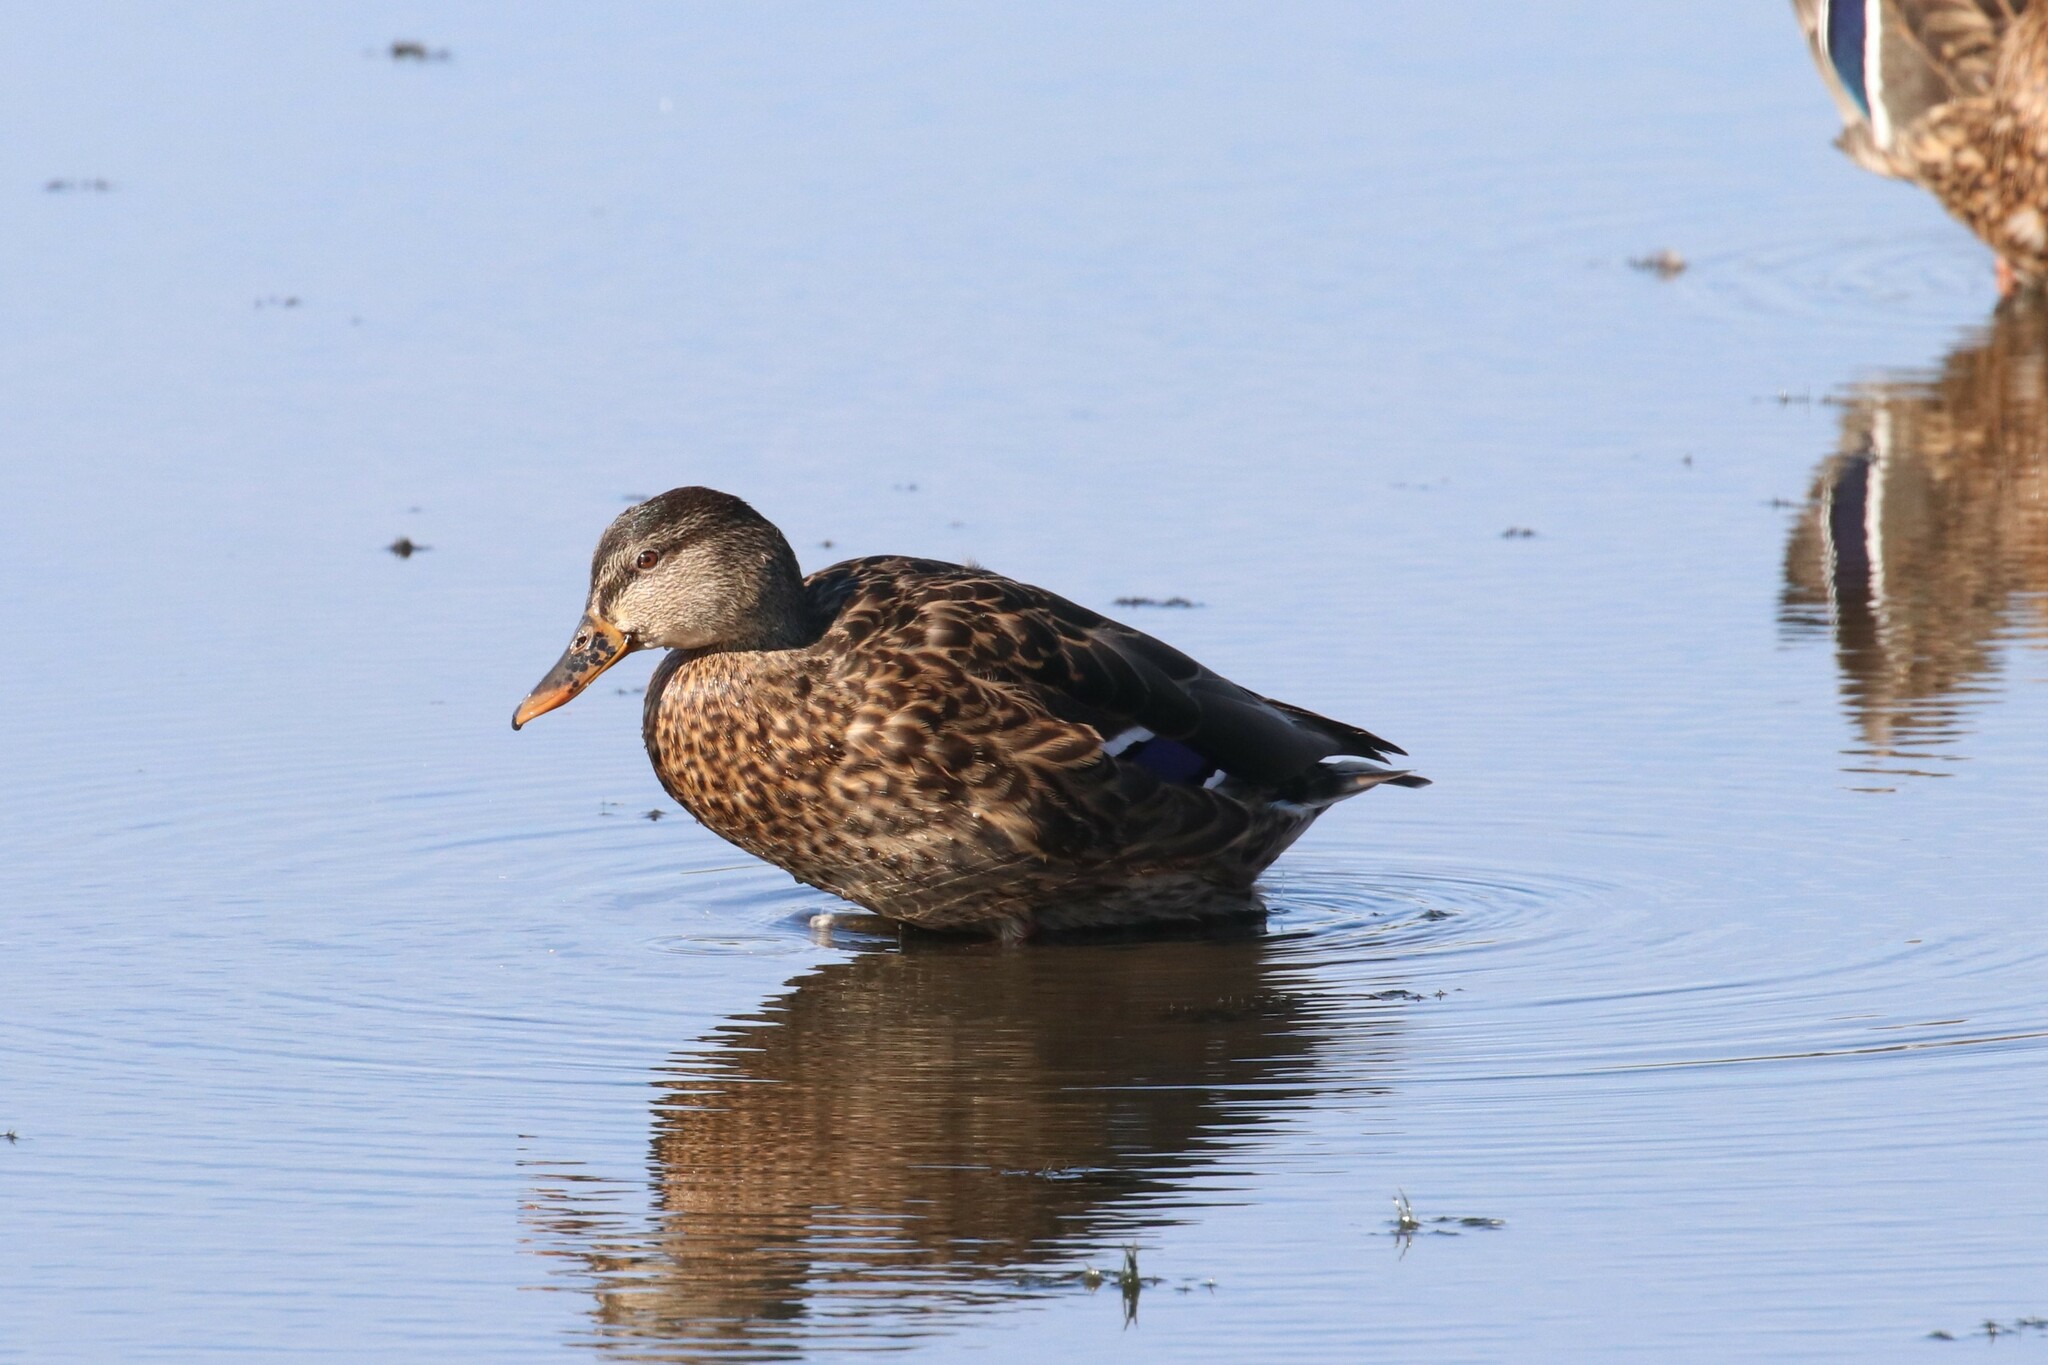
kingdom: Animalia
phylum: Chordata
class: Aves
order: Anseriformes
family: Anatidae
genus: Anas
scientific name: Anas platyrhynchos
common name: Mallard
